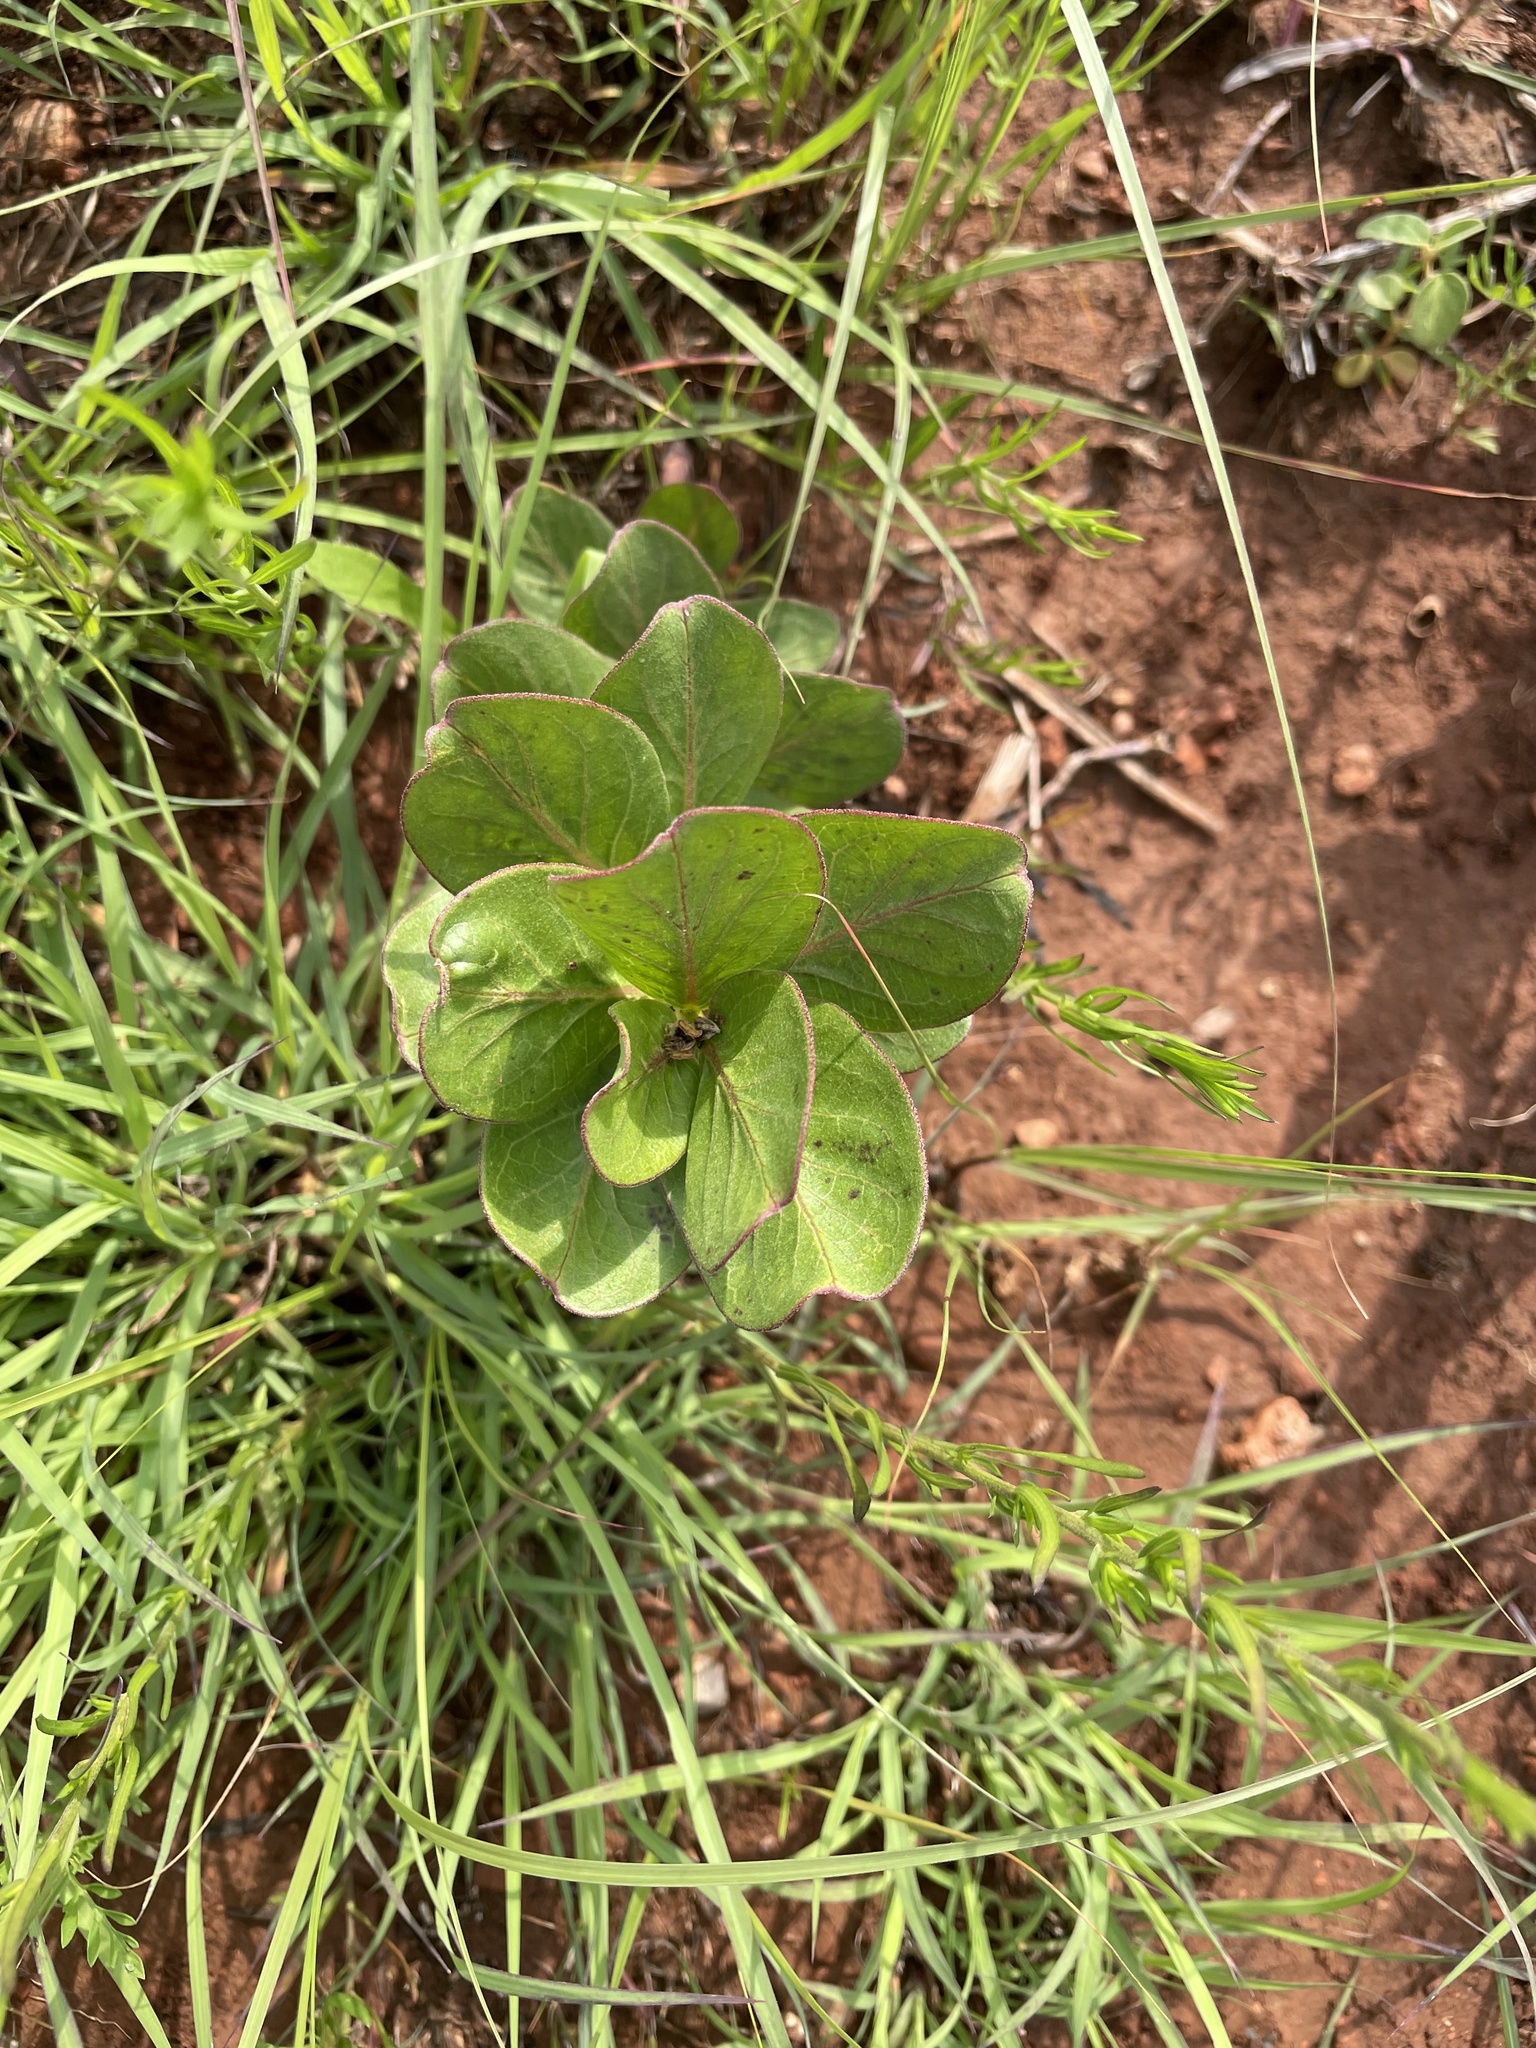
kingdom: Plantae
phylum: Tracheophyta
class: Magnoliopsida
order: Gentianales
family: Apocynaceae
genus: Asclepias
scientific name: Asclepias viridis
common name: Antelope-horns
